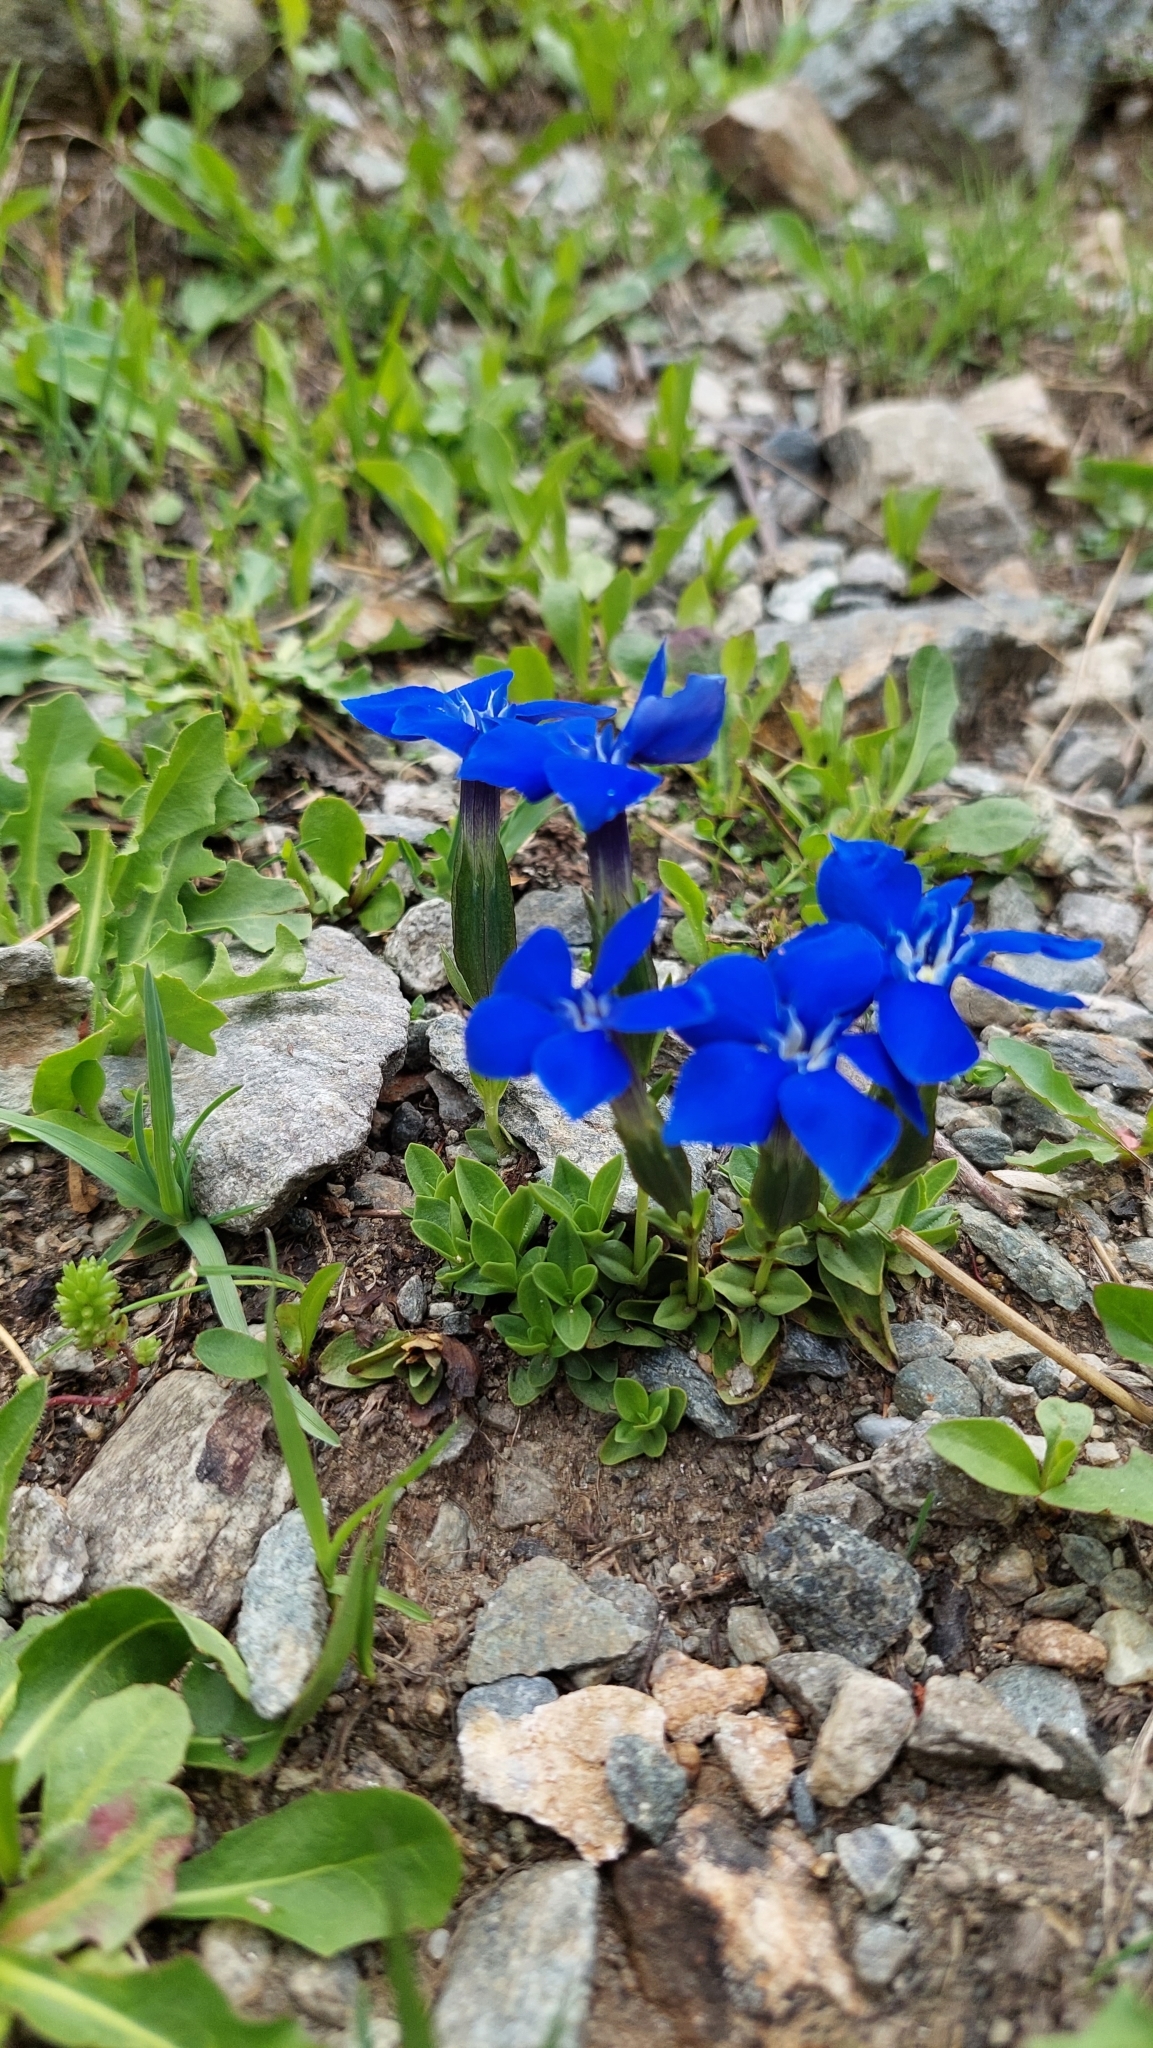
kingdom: Plantae
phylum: Tracheophyta
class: Magnoliopsida
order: Gentianales
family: Gentianaceae
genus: Gentiana
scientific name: Gentiana verna
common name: Spring gentian
